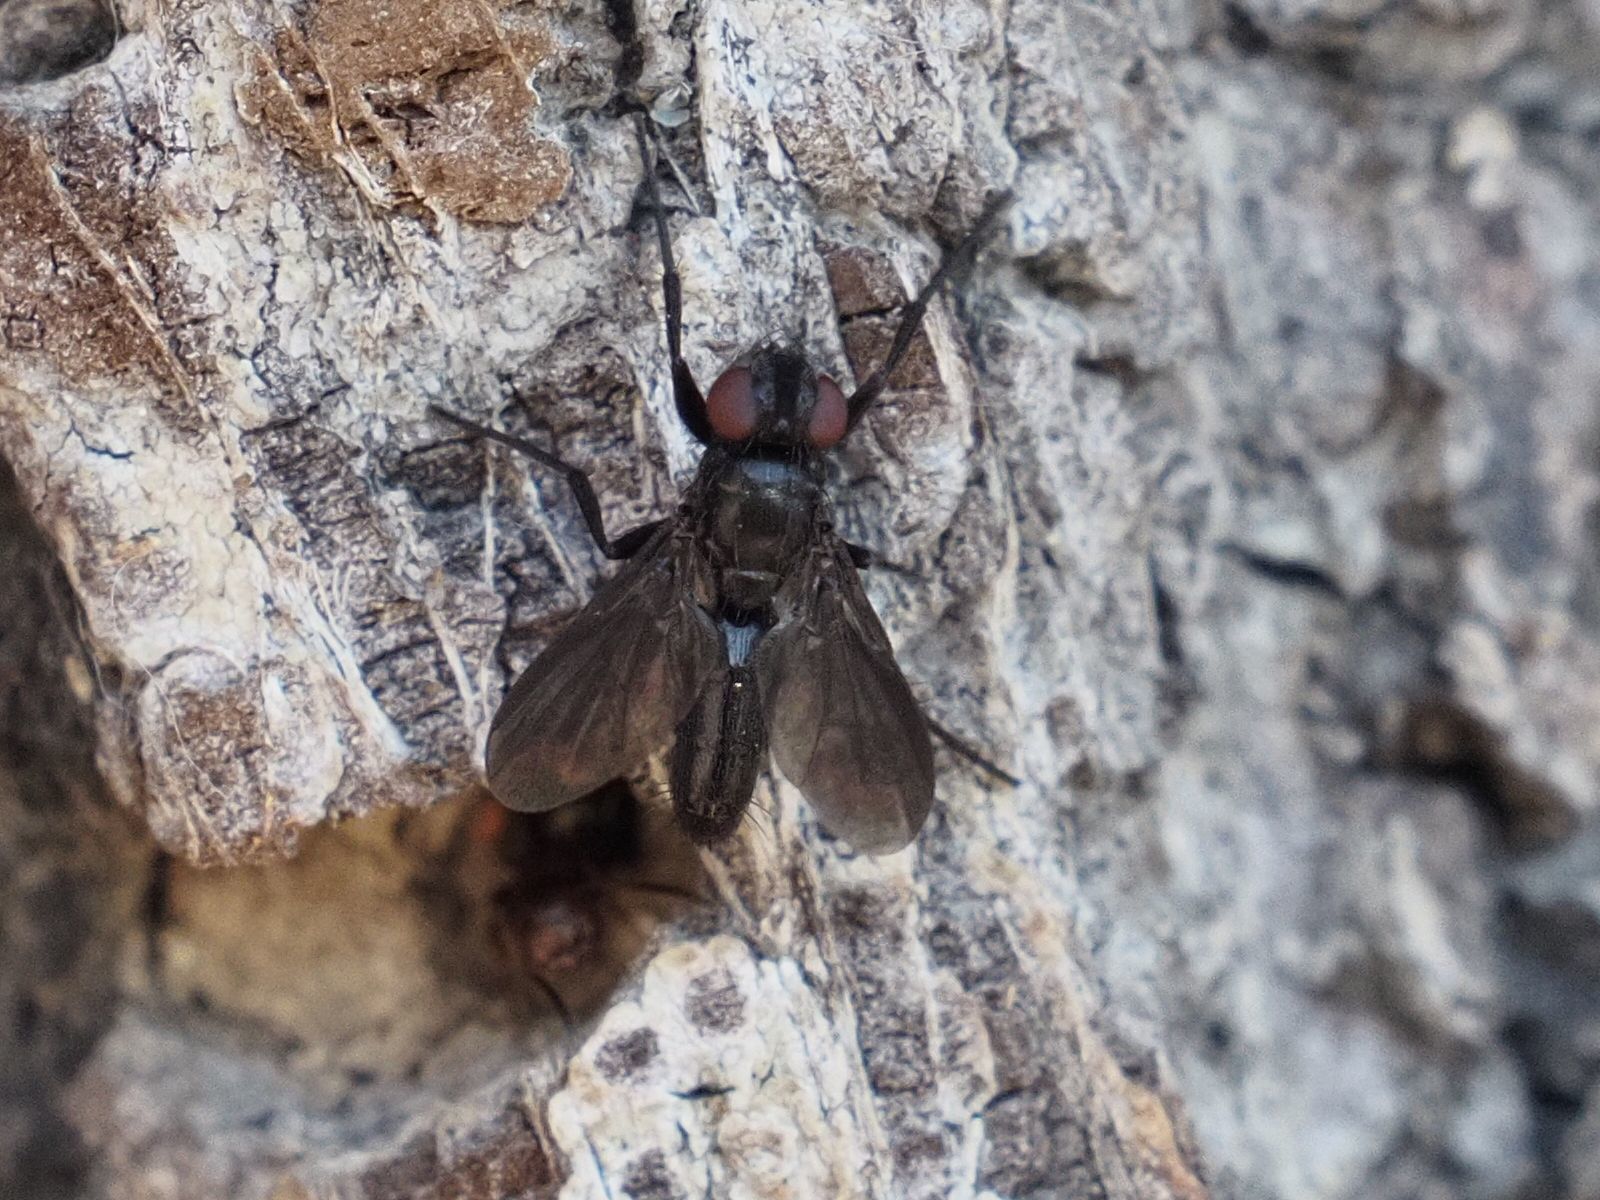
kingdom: Animalia
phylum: Arthropoda
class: Insecta
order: Diptera
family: Calliphoridae
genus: Melanophora
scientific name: Melanophora roralis
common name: Smoky-winged woodlouse-fly
